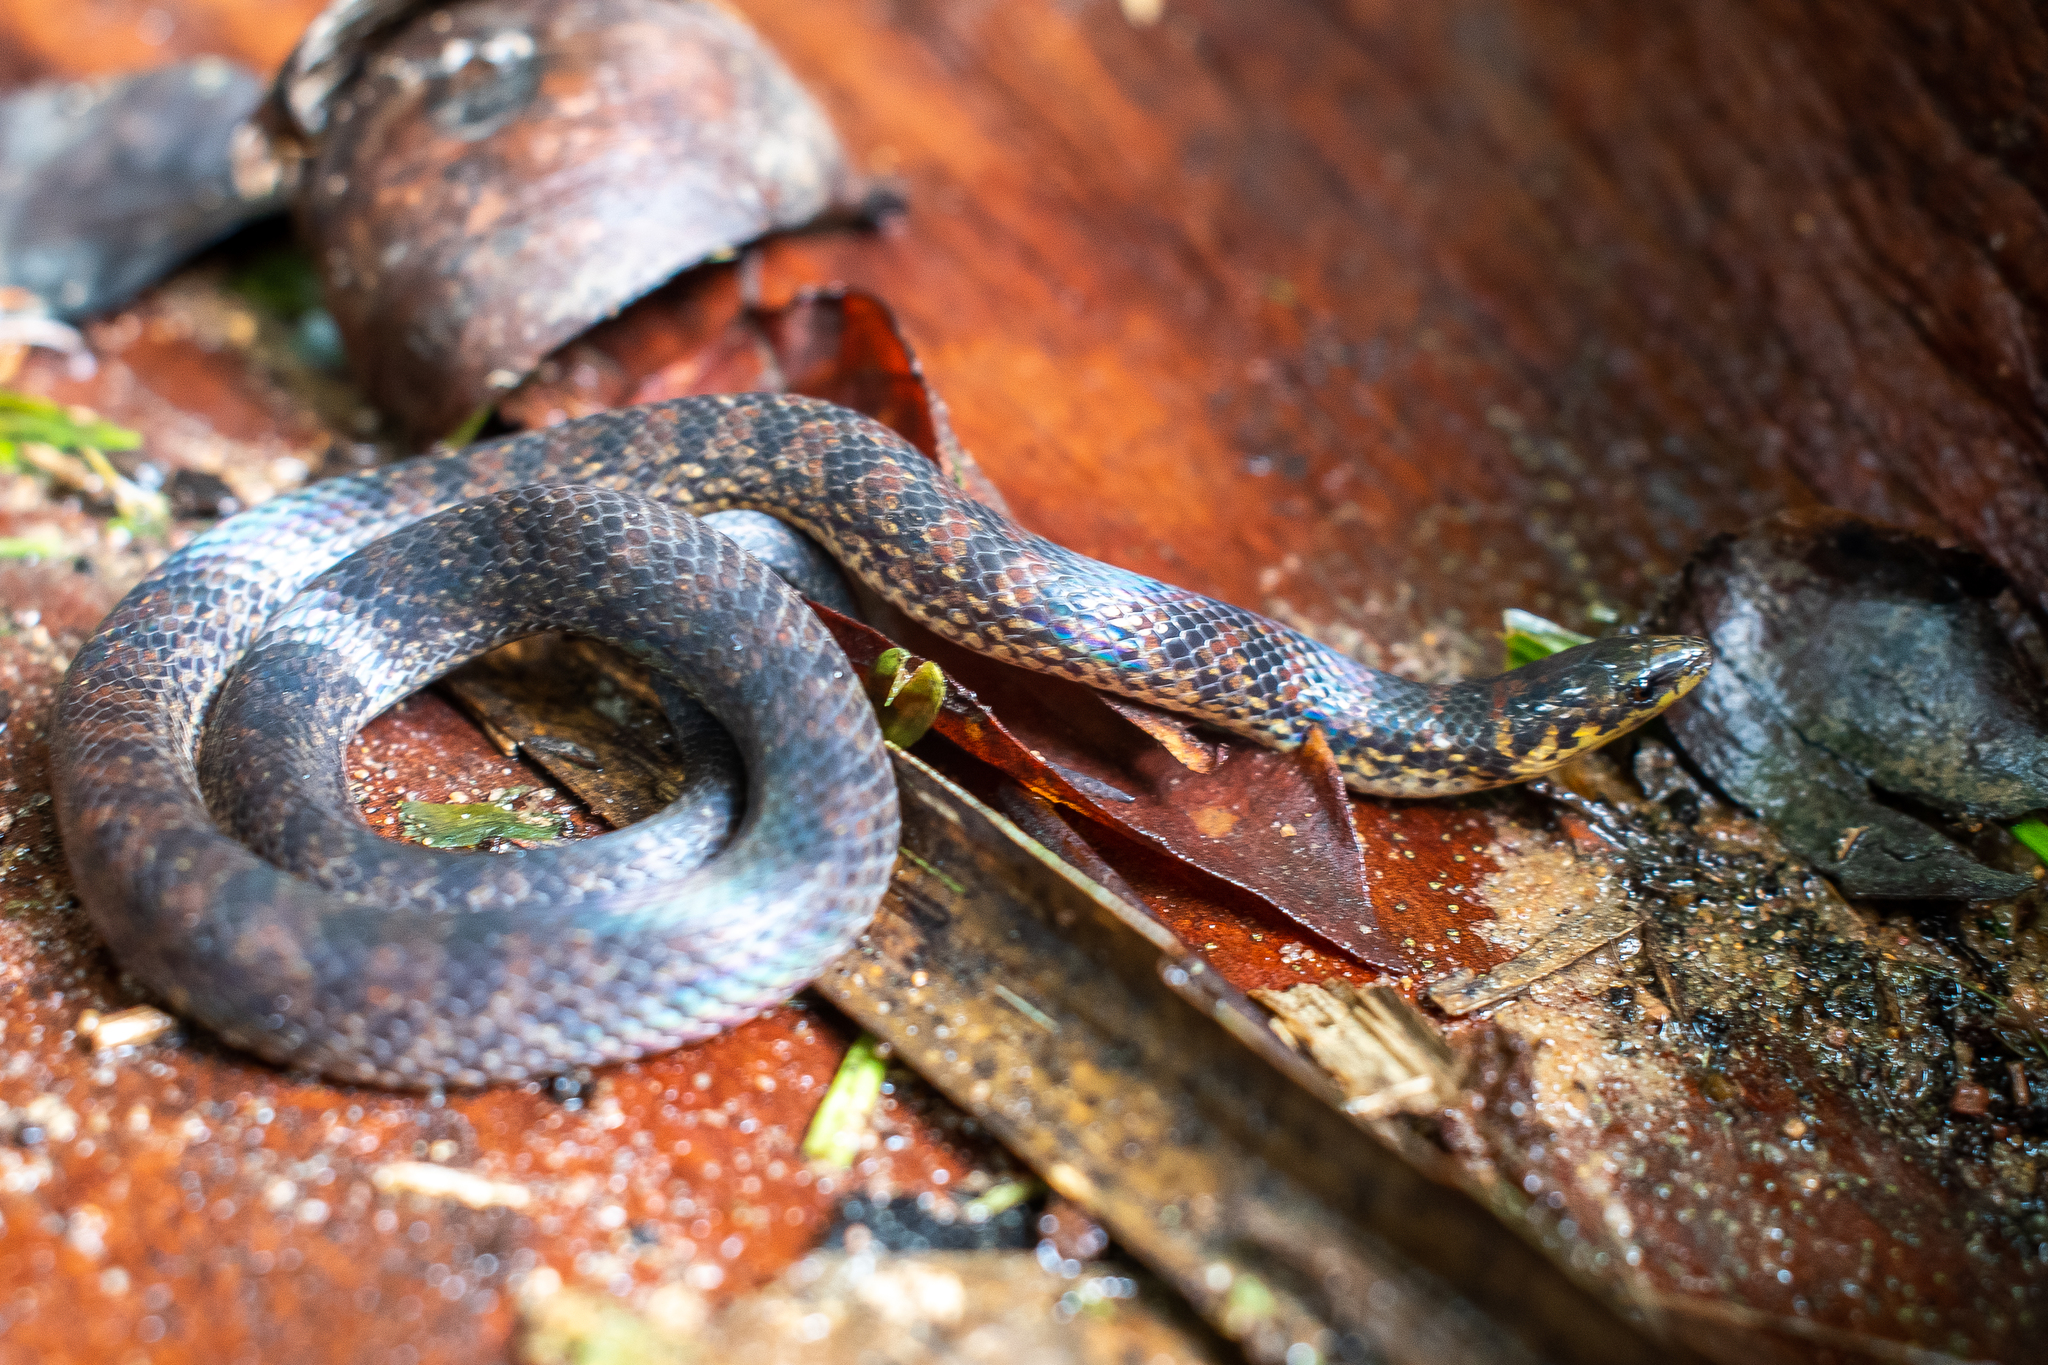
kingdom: Animalia
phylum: Chordata
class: Squamata
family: Colubridae
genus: Atractus
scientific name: Atractus tamessari
